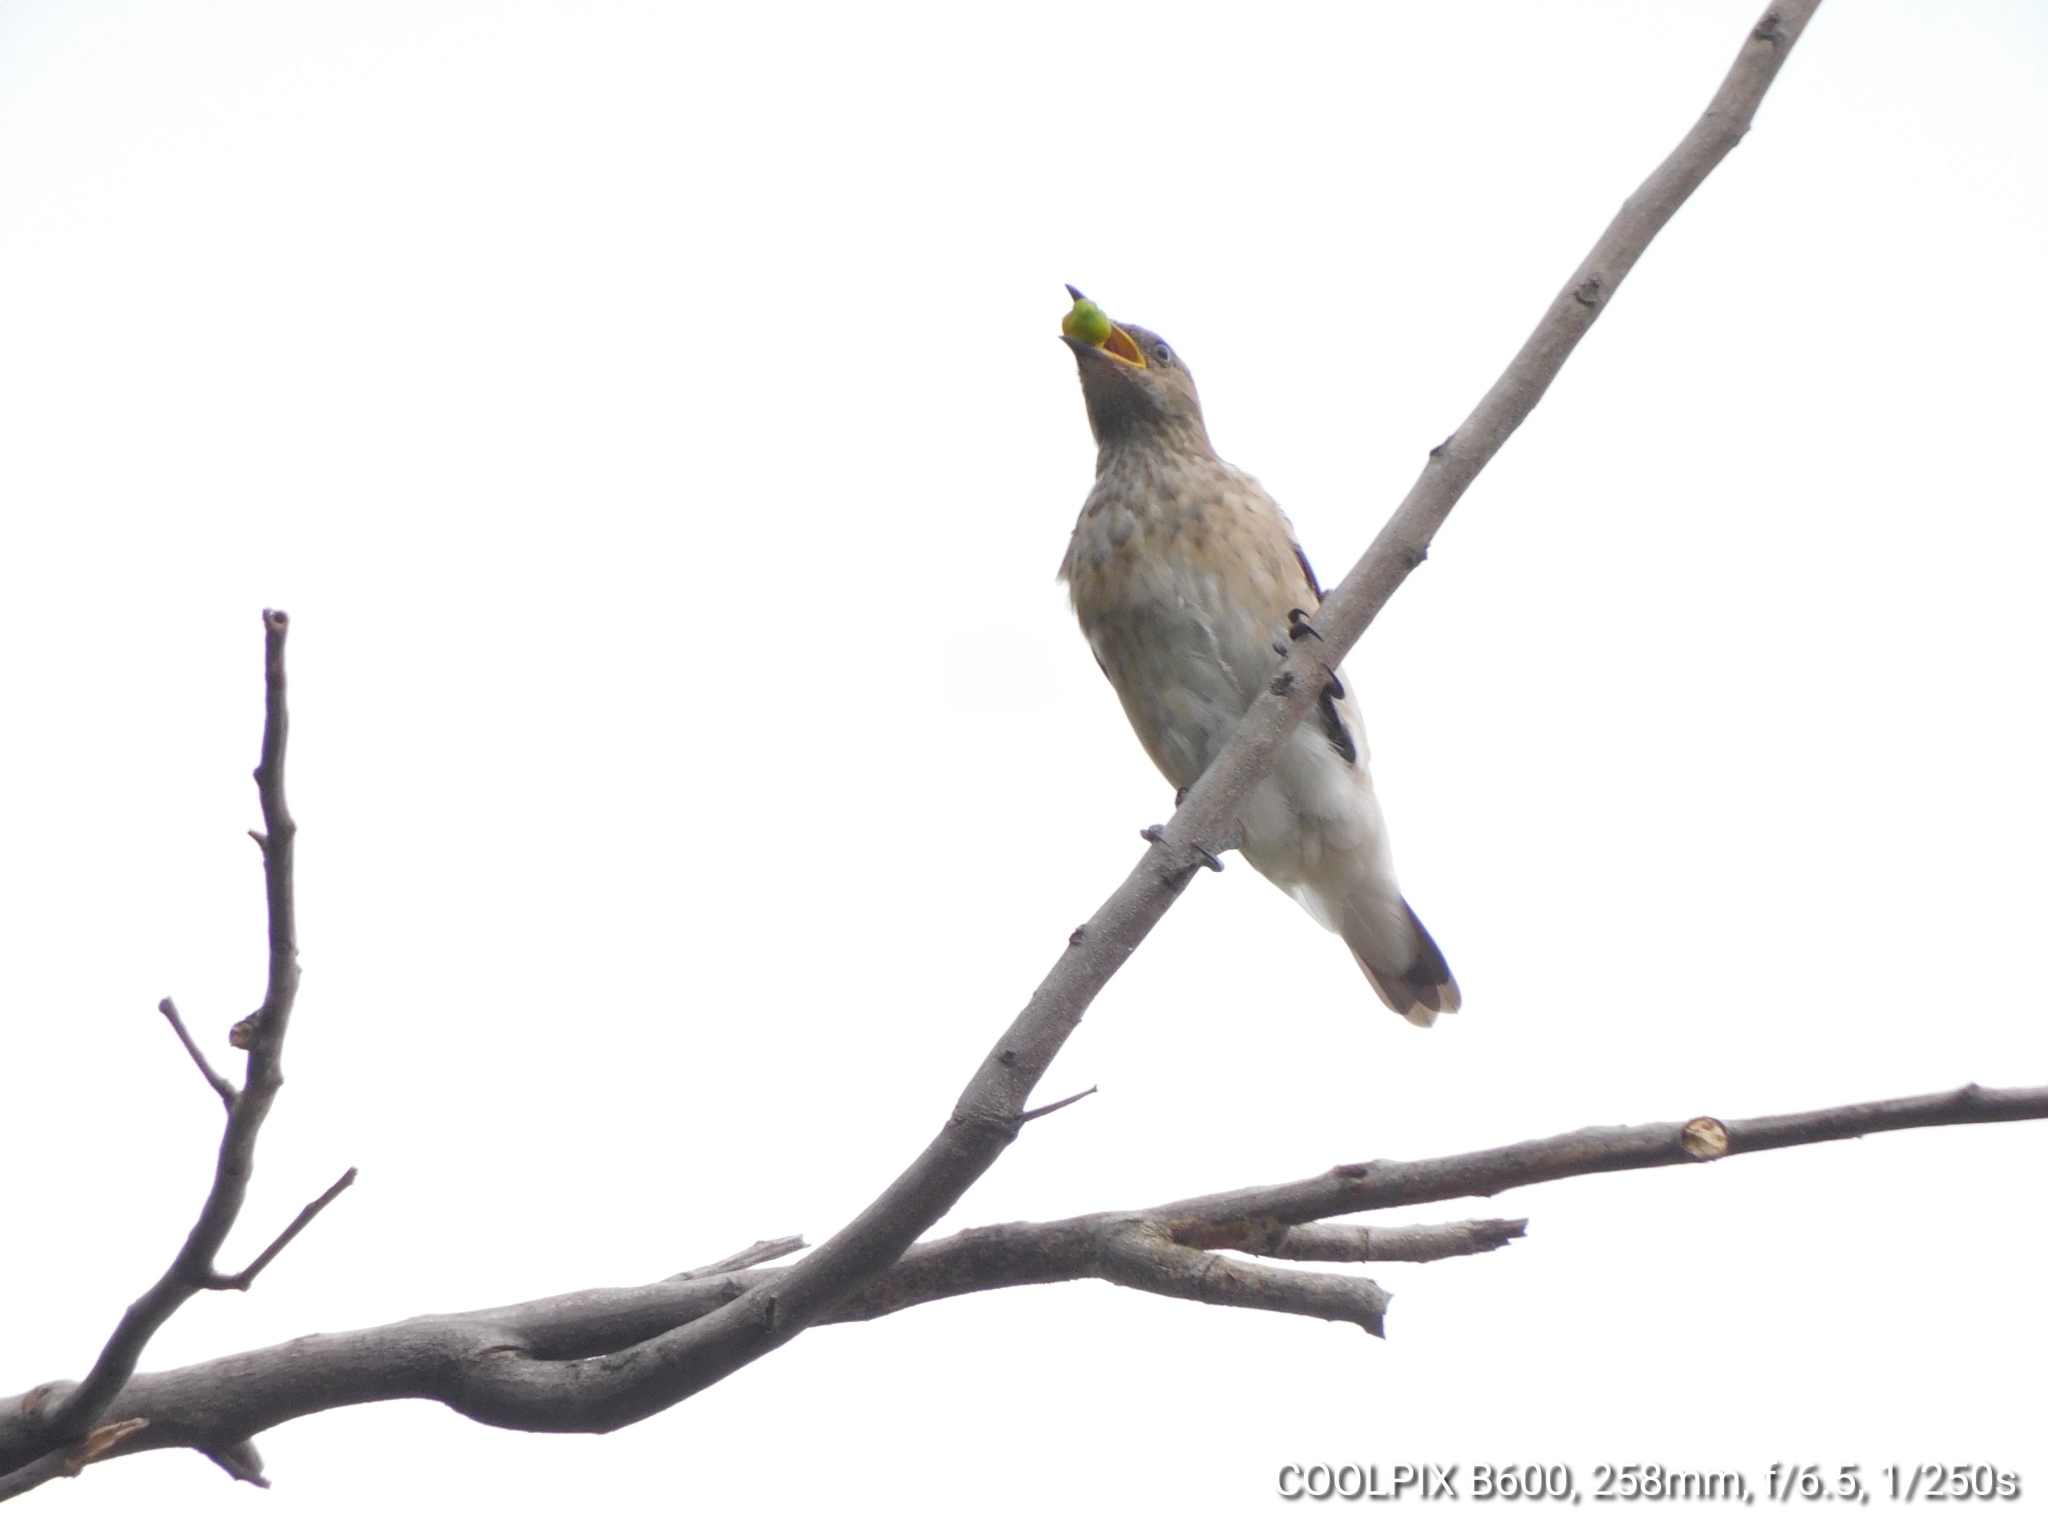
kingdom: Animalia
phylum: Chordata
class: Aves
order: Passeriformes
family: Sturnidae
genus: Saroglossa
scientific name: Saroglossa spiloptera
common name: Spot-winged starling
